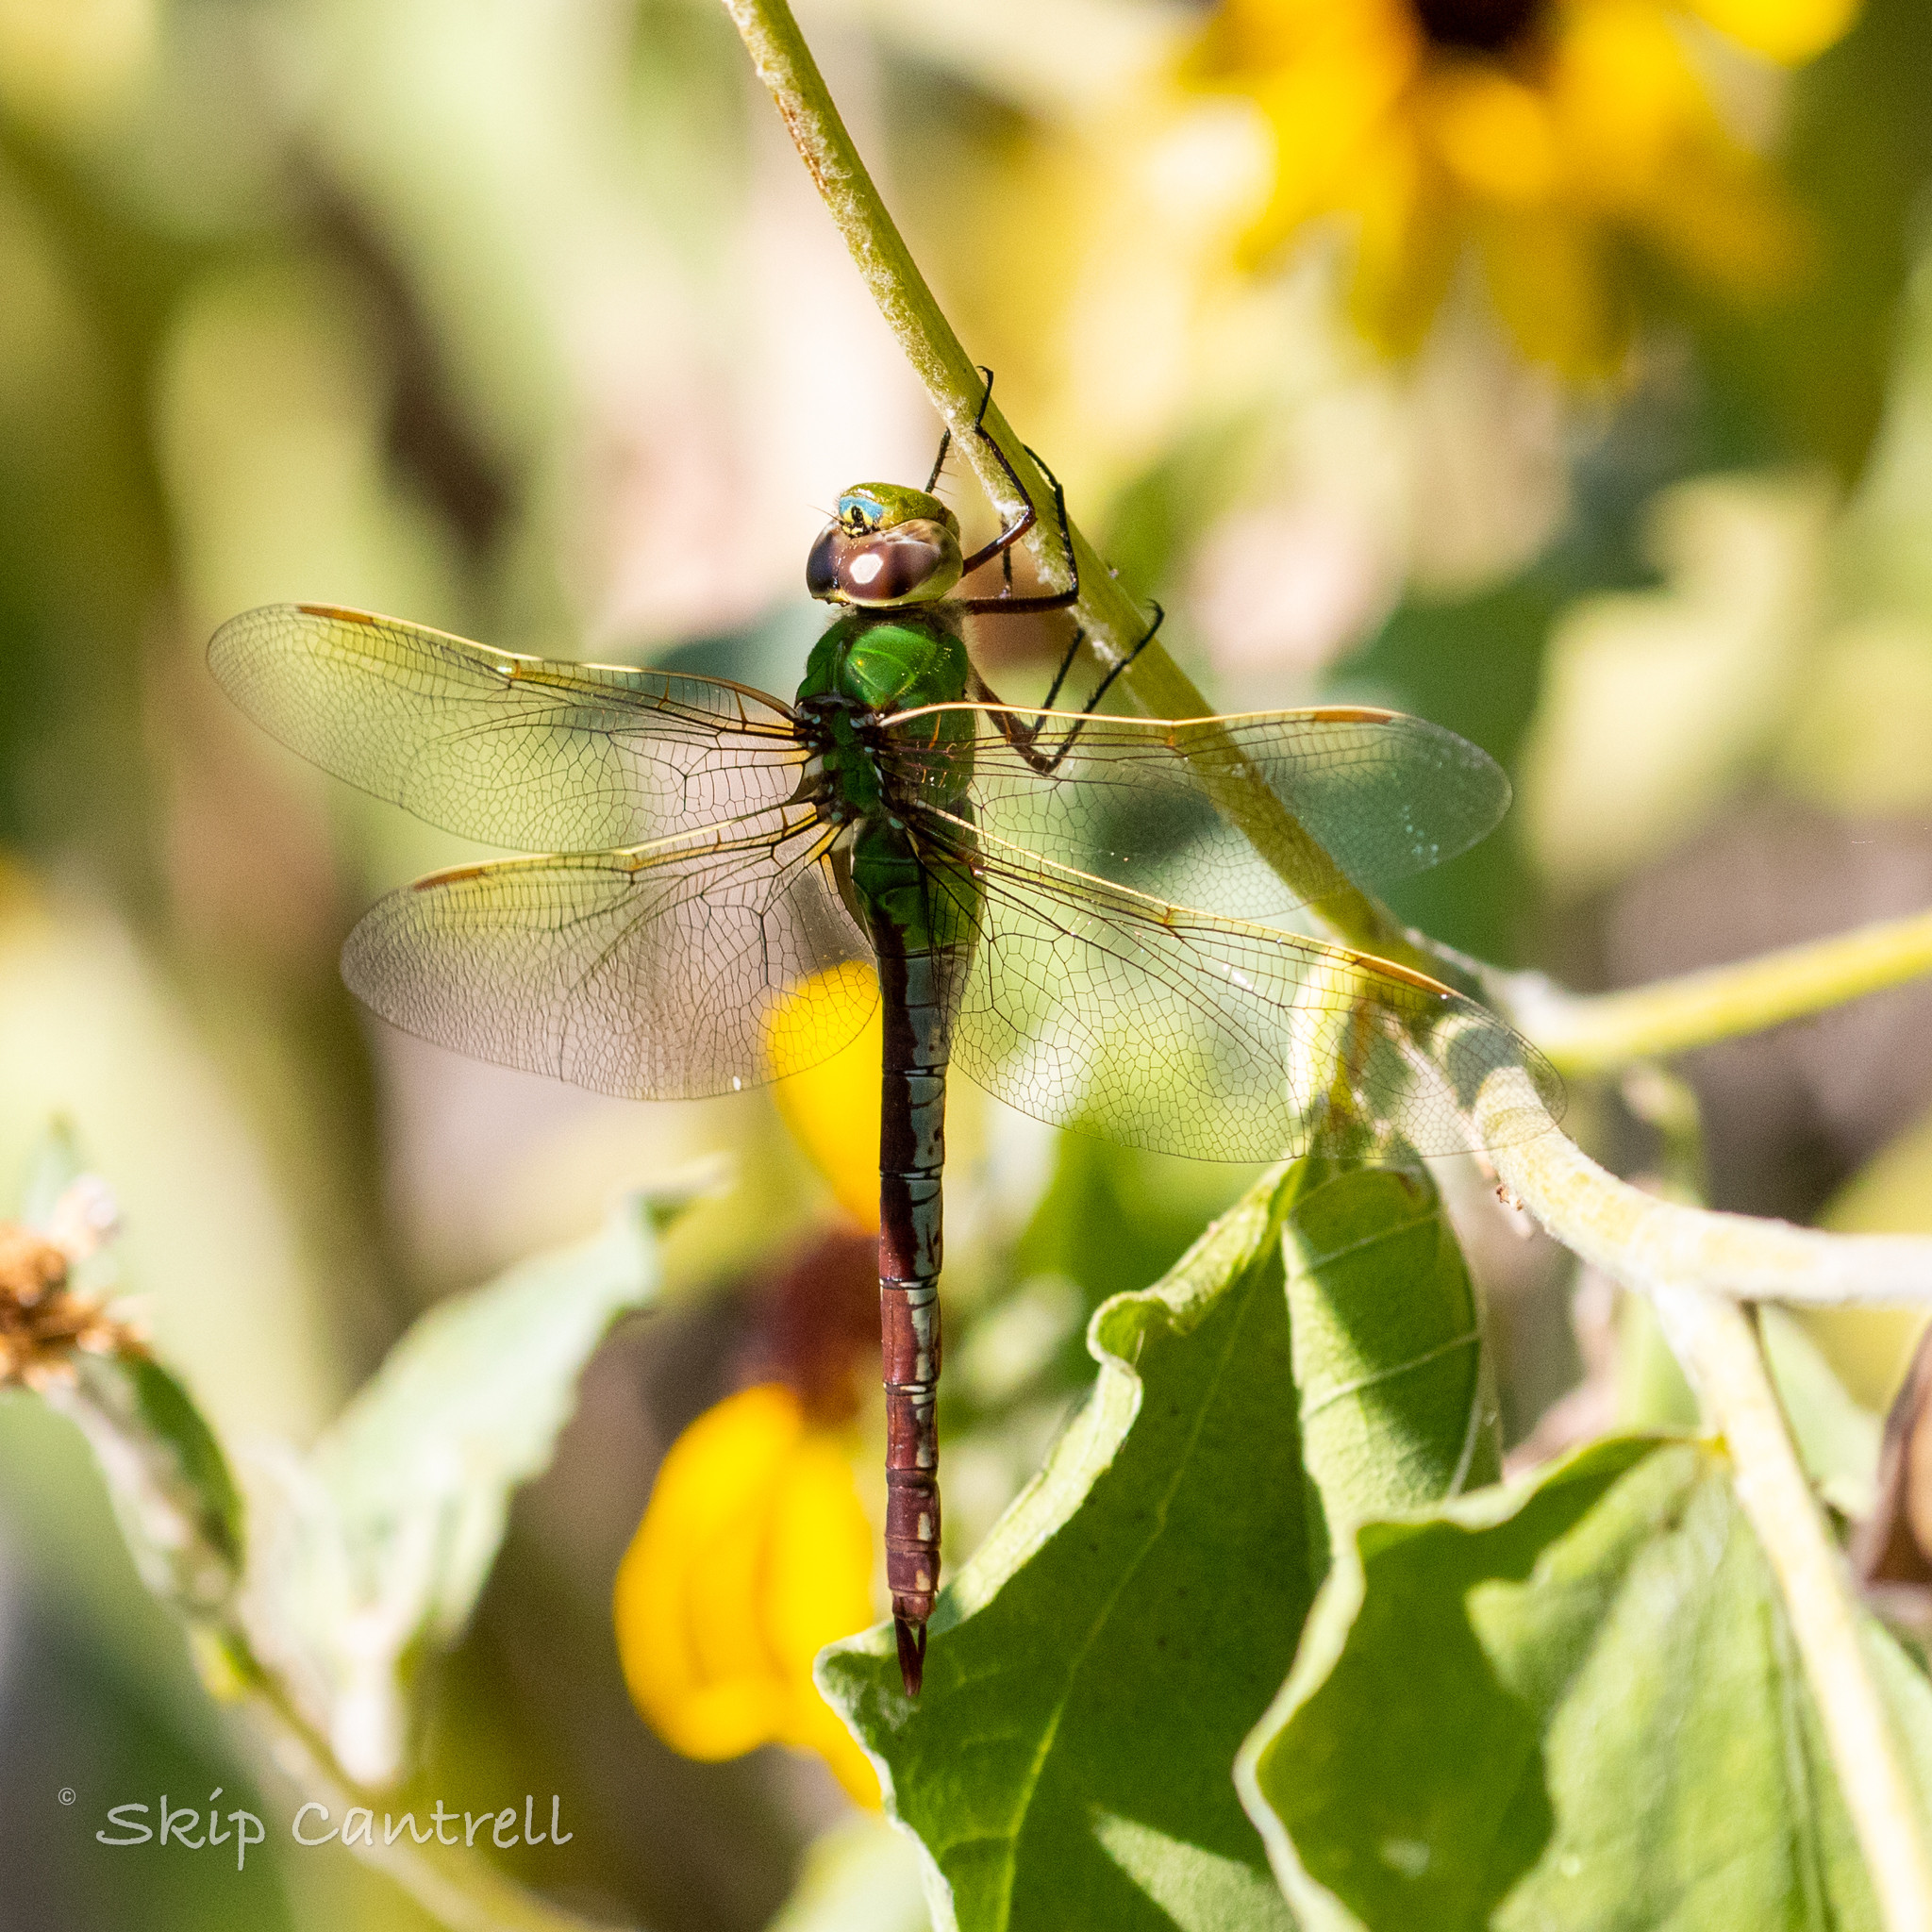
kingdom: Animalia
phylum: Arthropoda
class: Insecta
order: Odonata
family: Aeshnidae
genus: Anax
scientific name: Anax junius
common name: Common green darner
